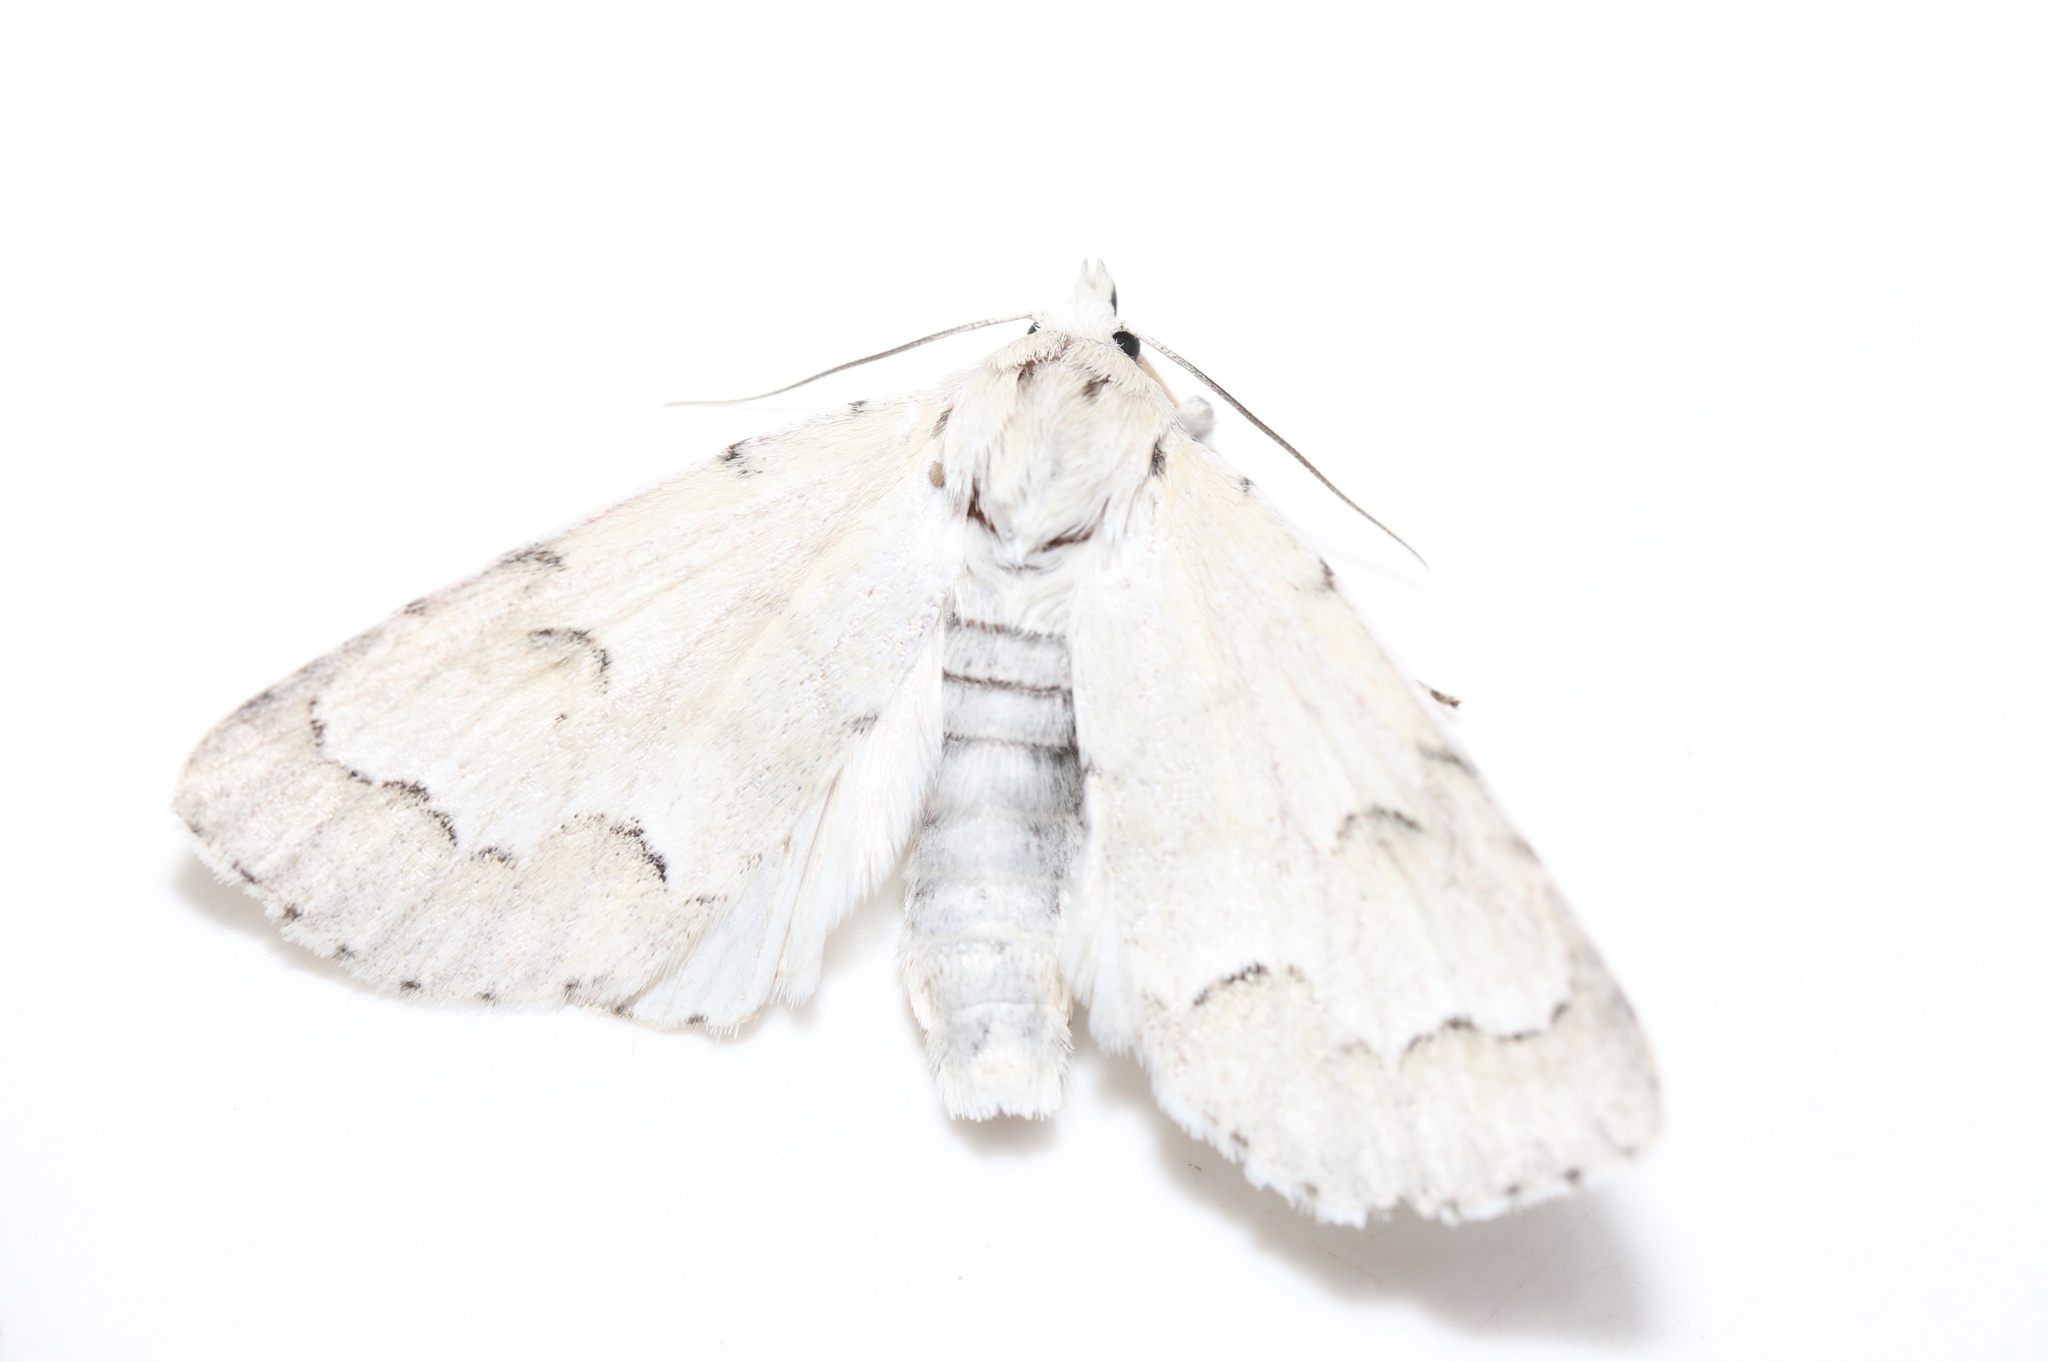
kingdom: Animalia
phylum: Arthropoda
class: Insecta
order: Lepidoptera
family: Noctuidae
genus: Acronicta
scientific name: Acronicta innotata
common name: Unmarked dagger
